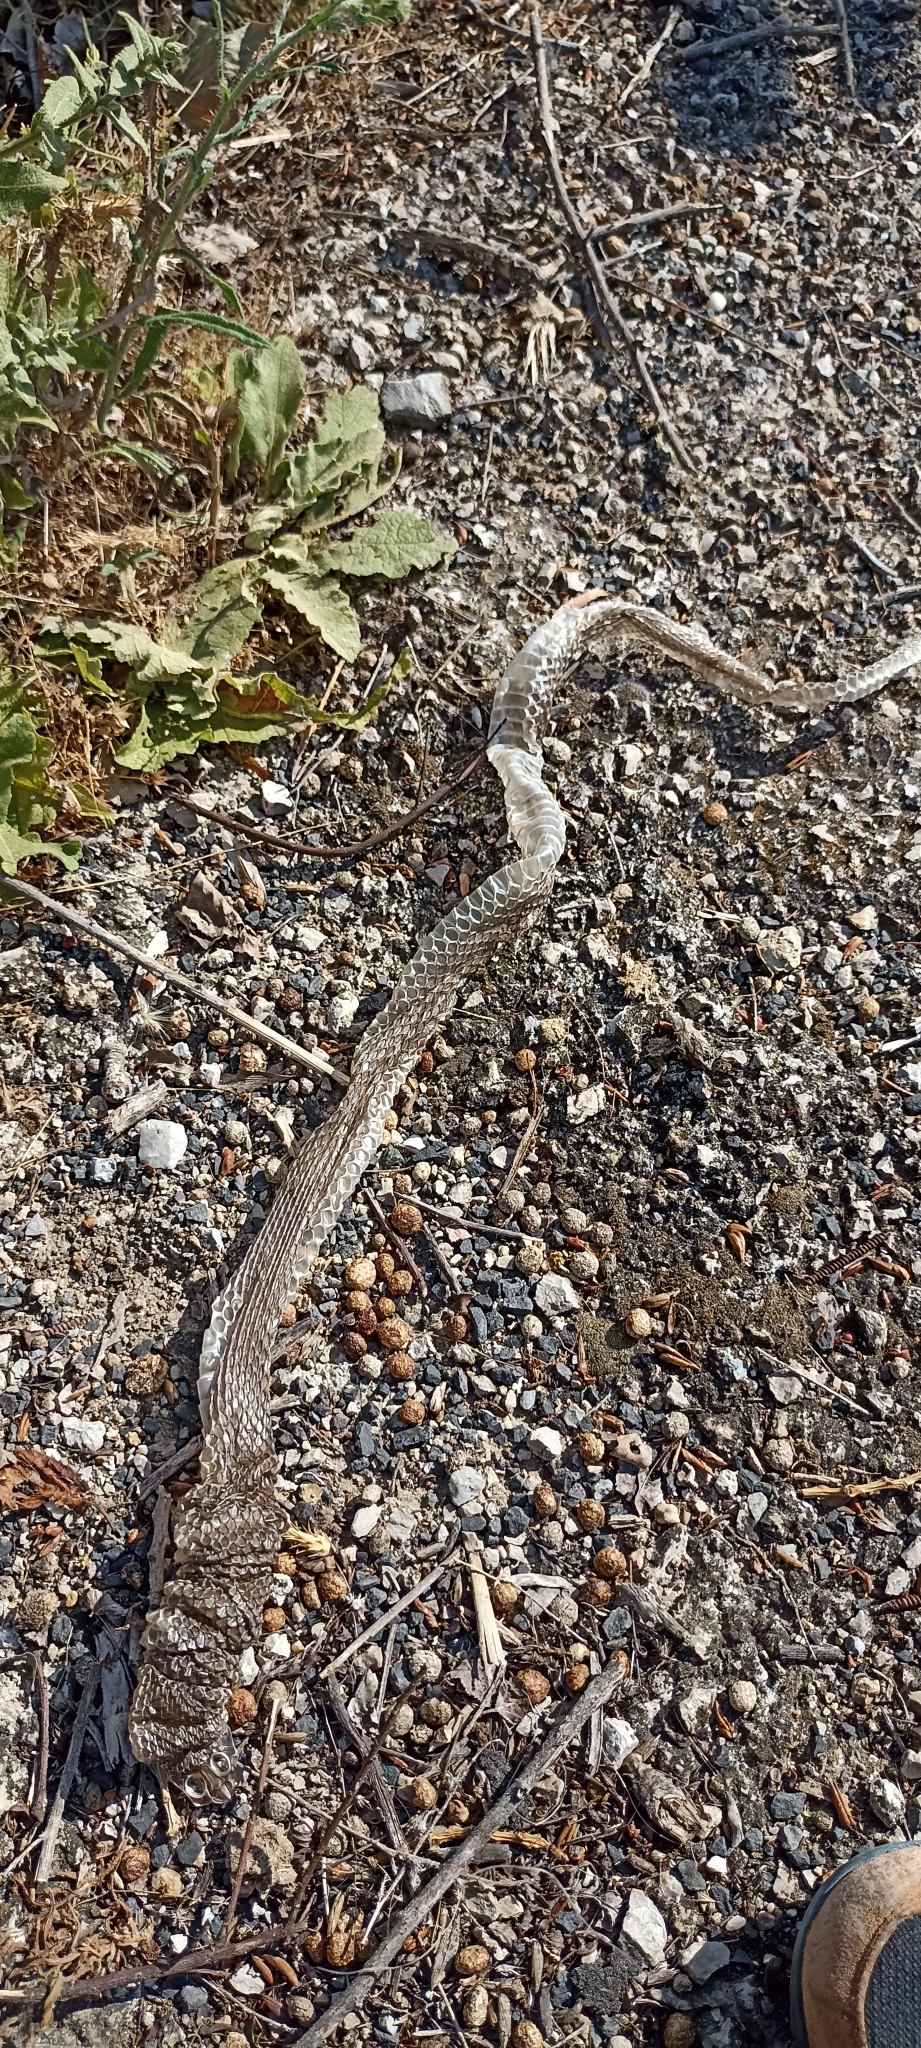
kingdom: Animalia
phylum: Chordata
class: Squamata
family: Psammophiidae
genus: Malpolon
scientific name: Malpolon monspessulanus
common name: Montpellier snake
